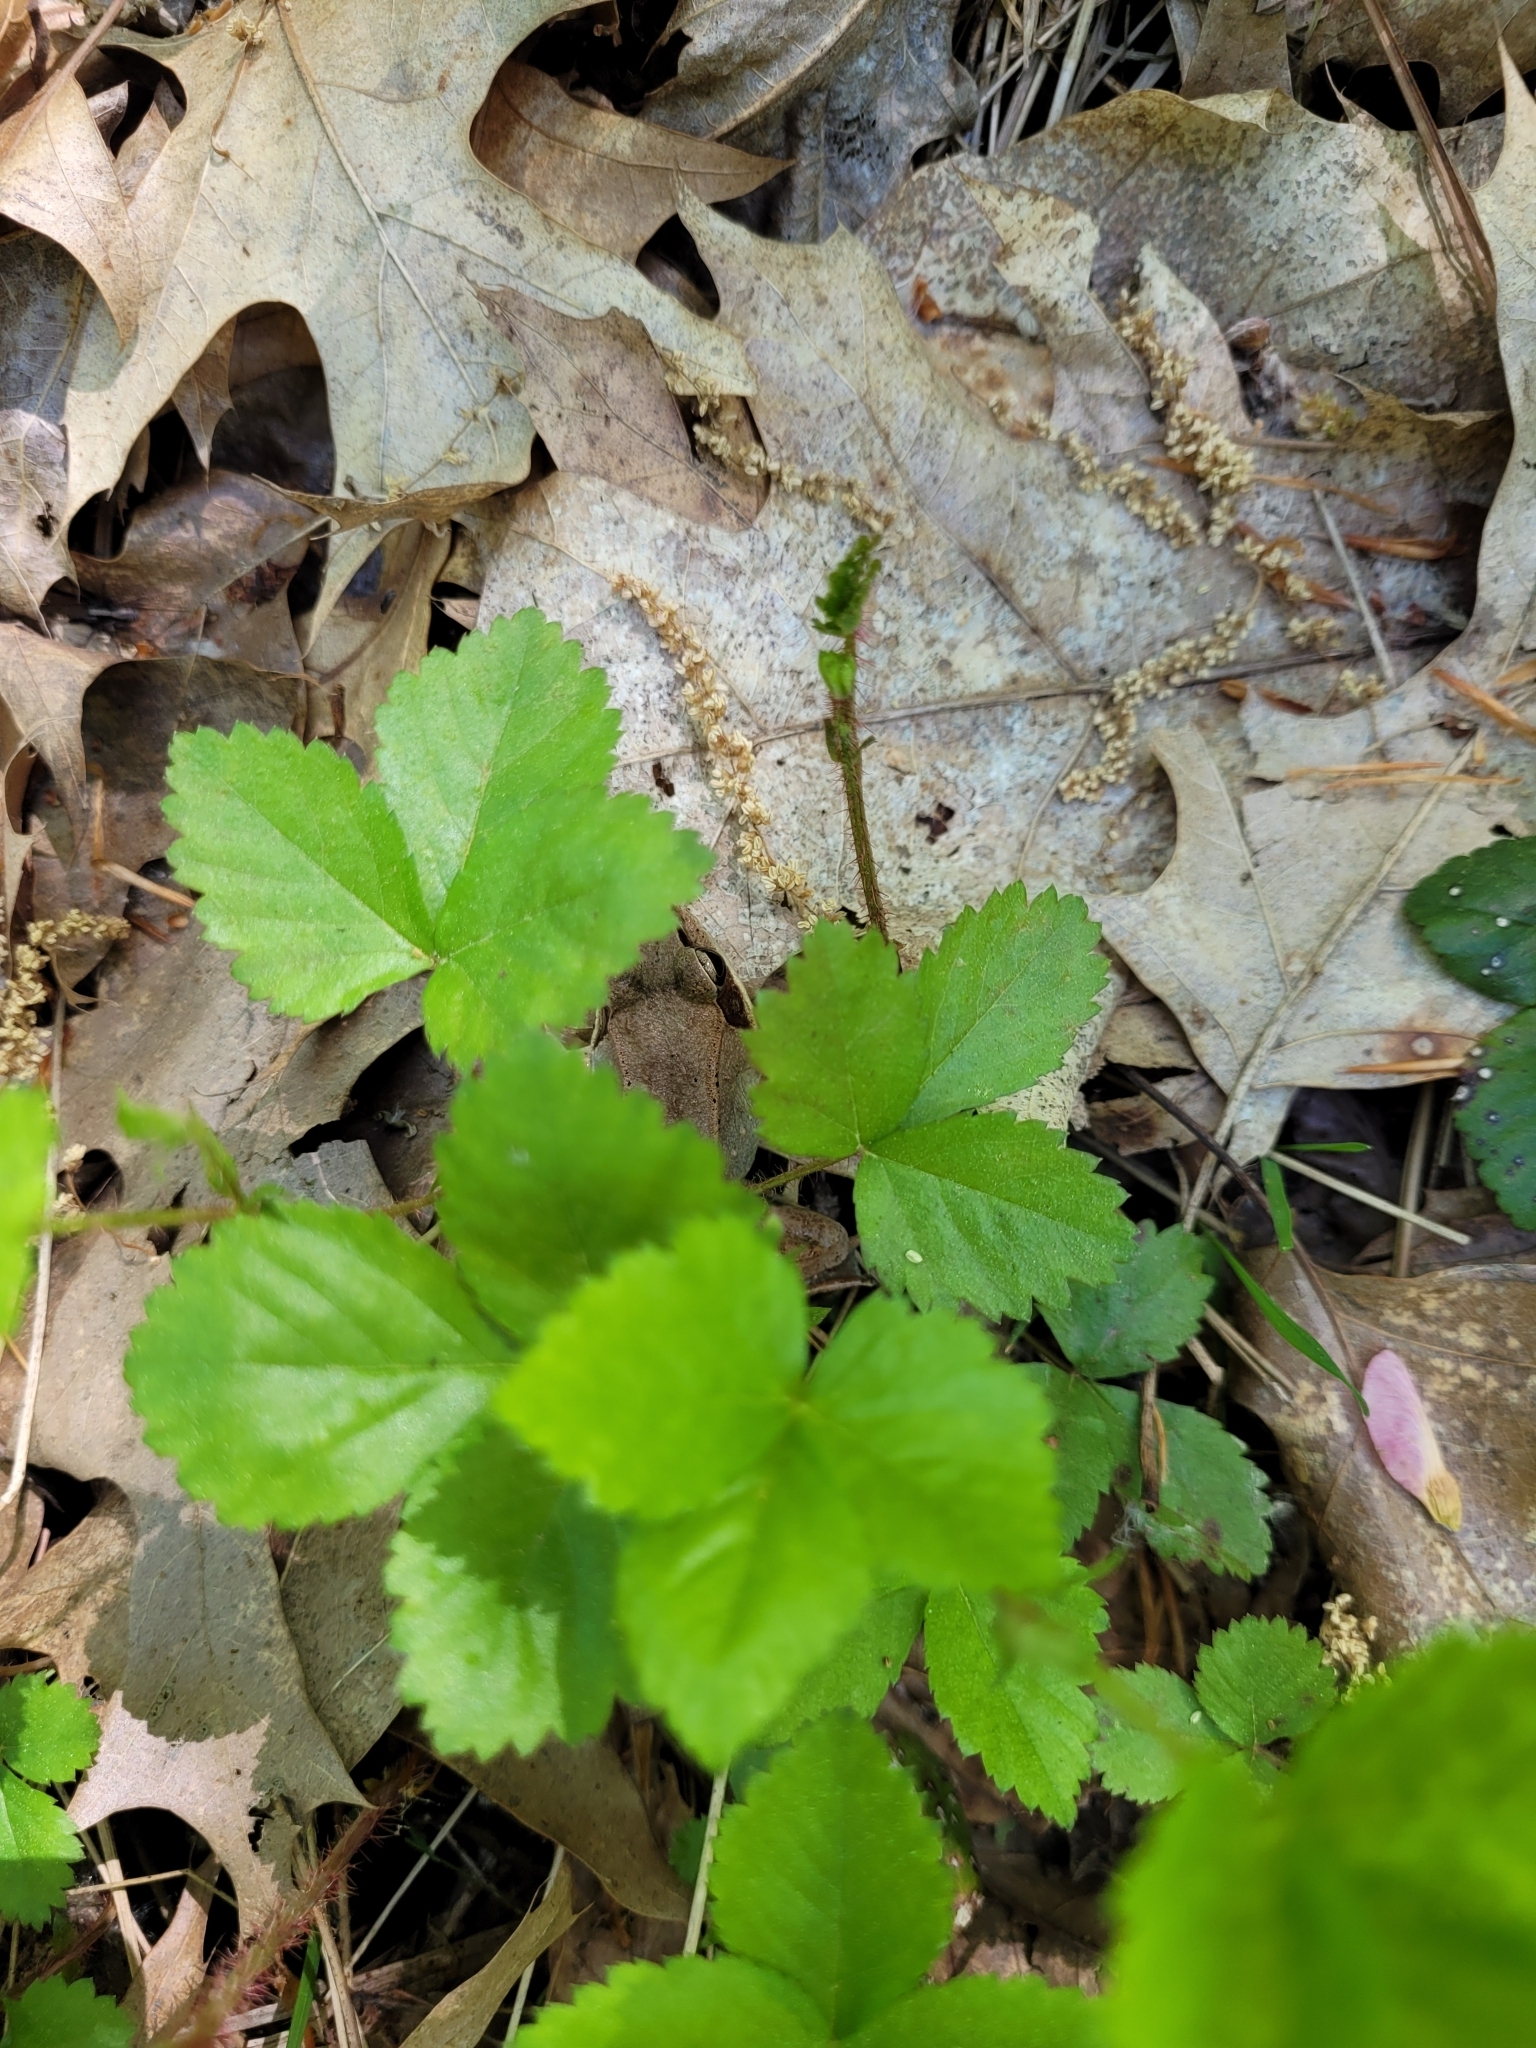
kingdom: Animalia
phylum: Chordata
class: Amphibia
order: Anura
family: Ranidae
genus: Lithobates
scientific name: Lithobates sylvaticus
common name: Wood frog
